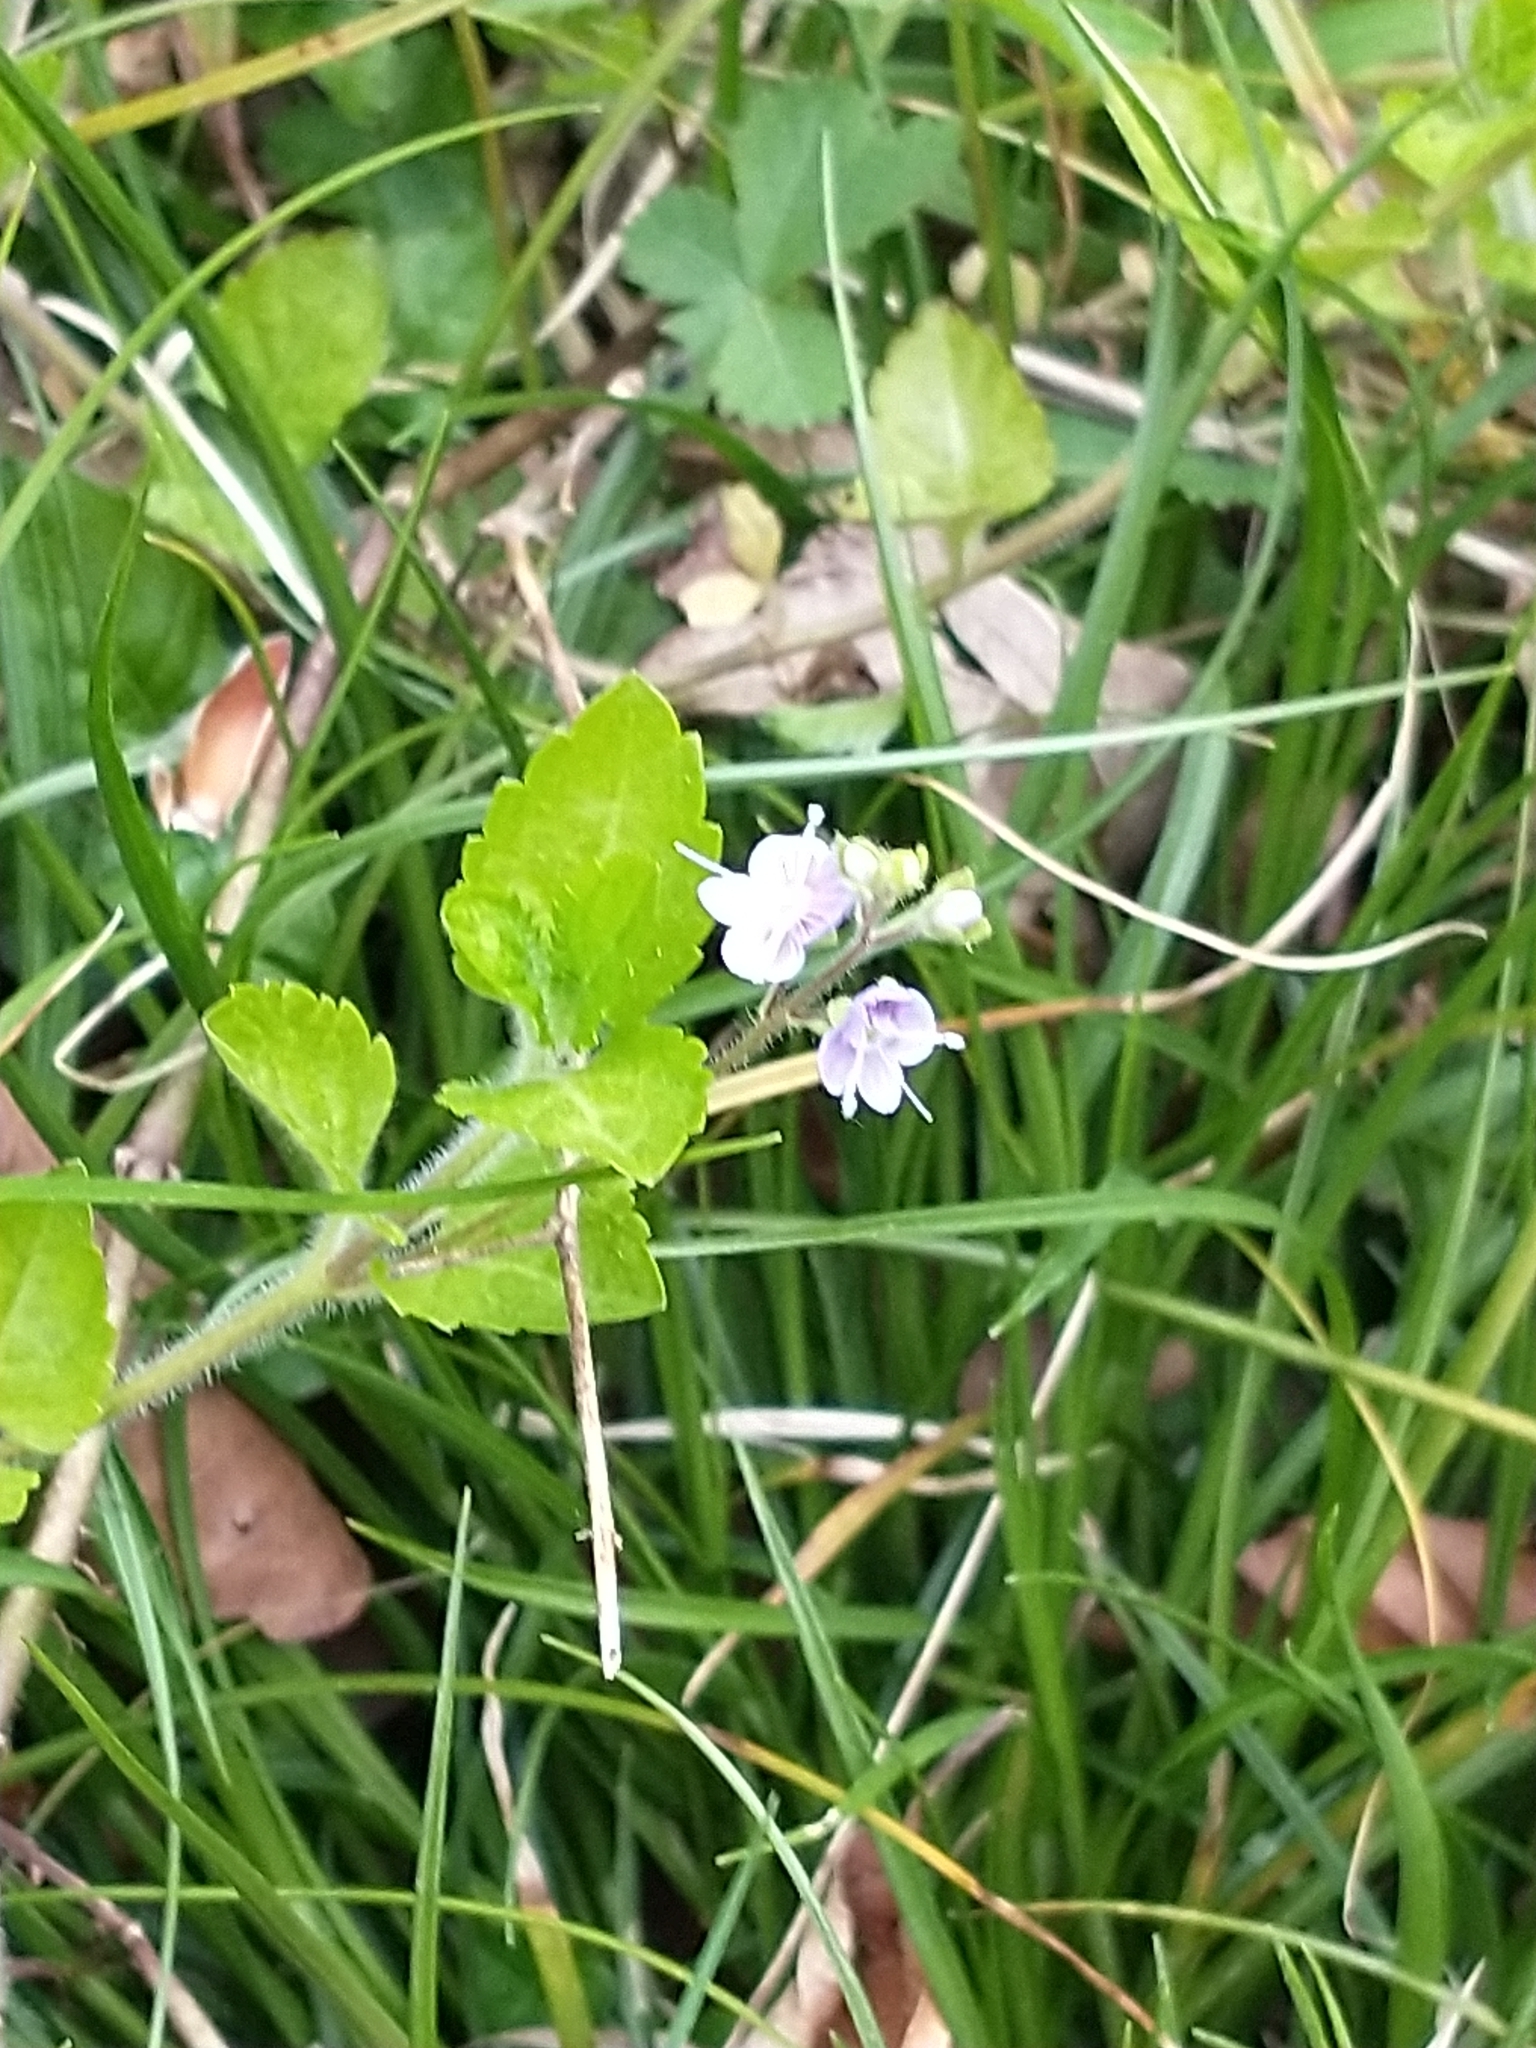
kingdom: Plantae
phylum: Tracheophyta
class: Magnoliopsida
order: Lamiales
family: Plantaginaceae
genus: Veronica
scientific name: Veronica montana
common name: Wood speedwell
